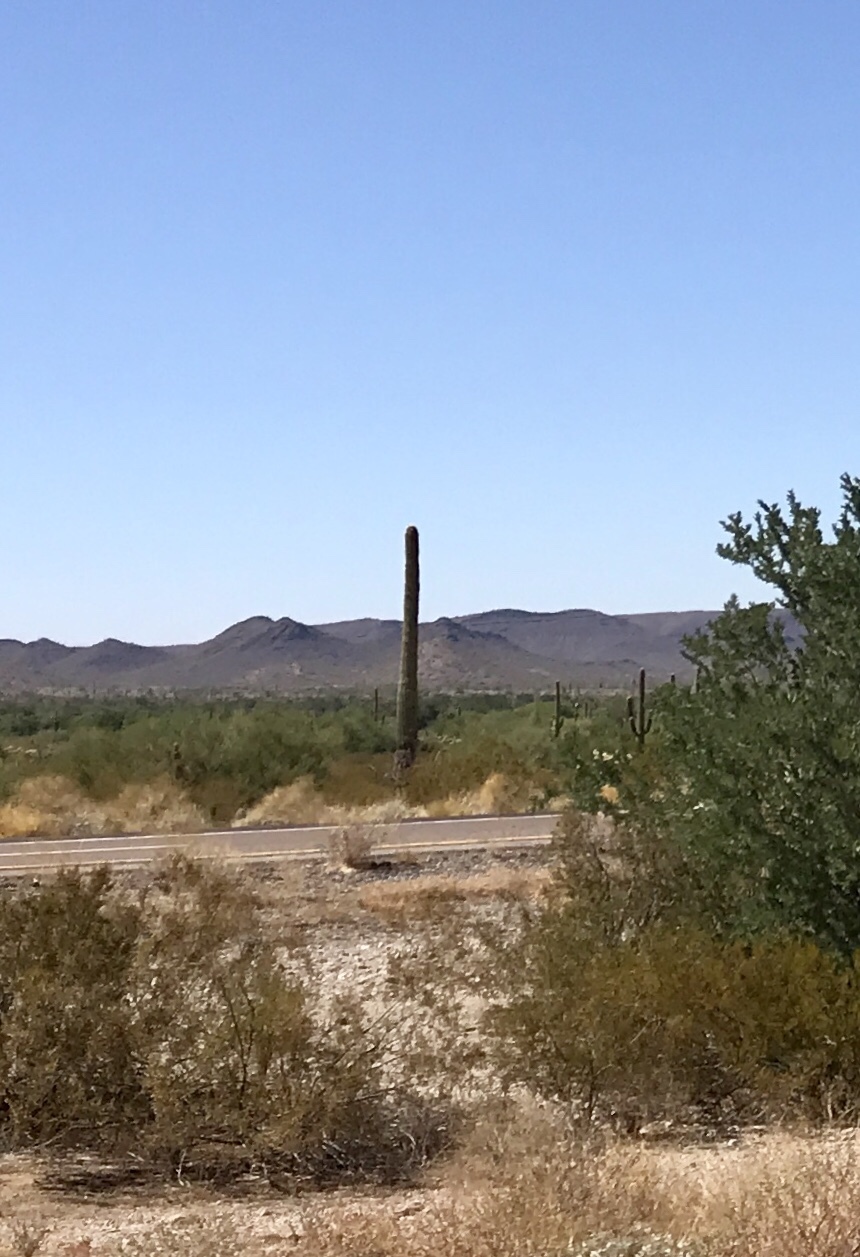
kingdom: Plantae
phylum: Tracheophyta
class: Magnoliopsida
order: Caryophyllales
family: Cactaceae
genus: Carnegiea
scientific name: Carnegiea gigantea
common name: Saguaro
